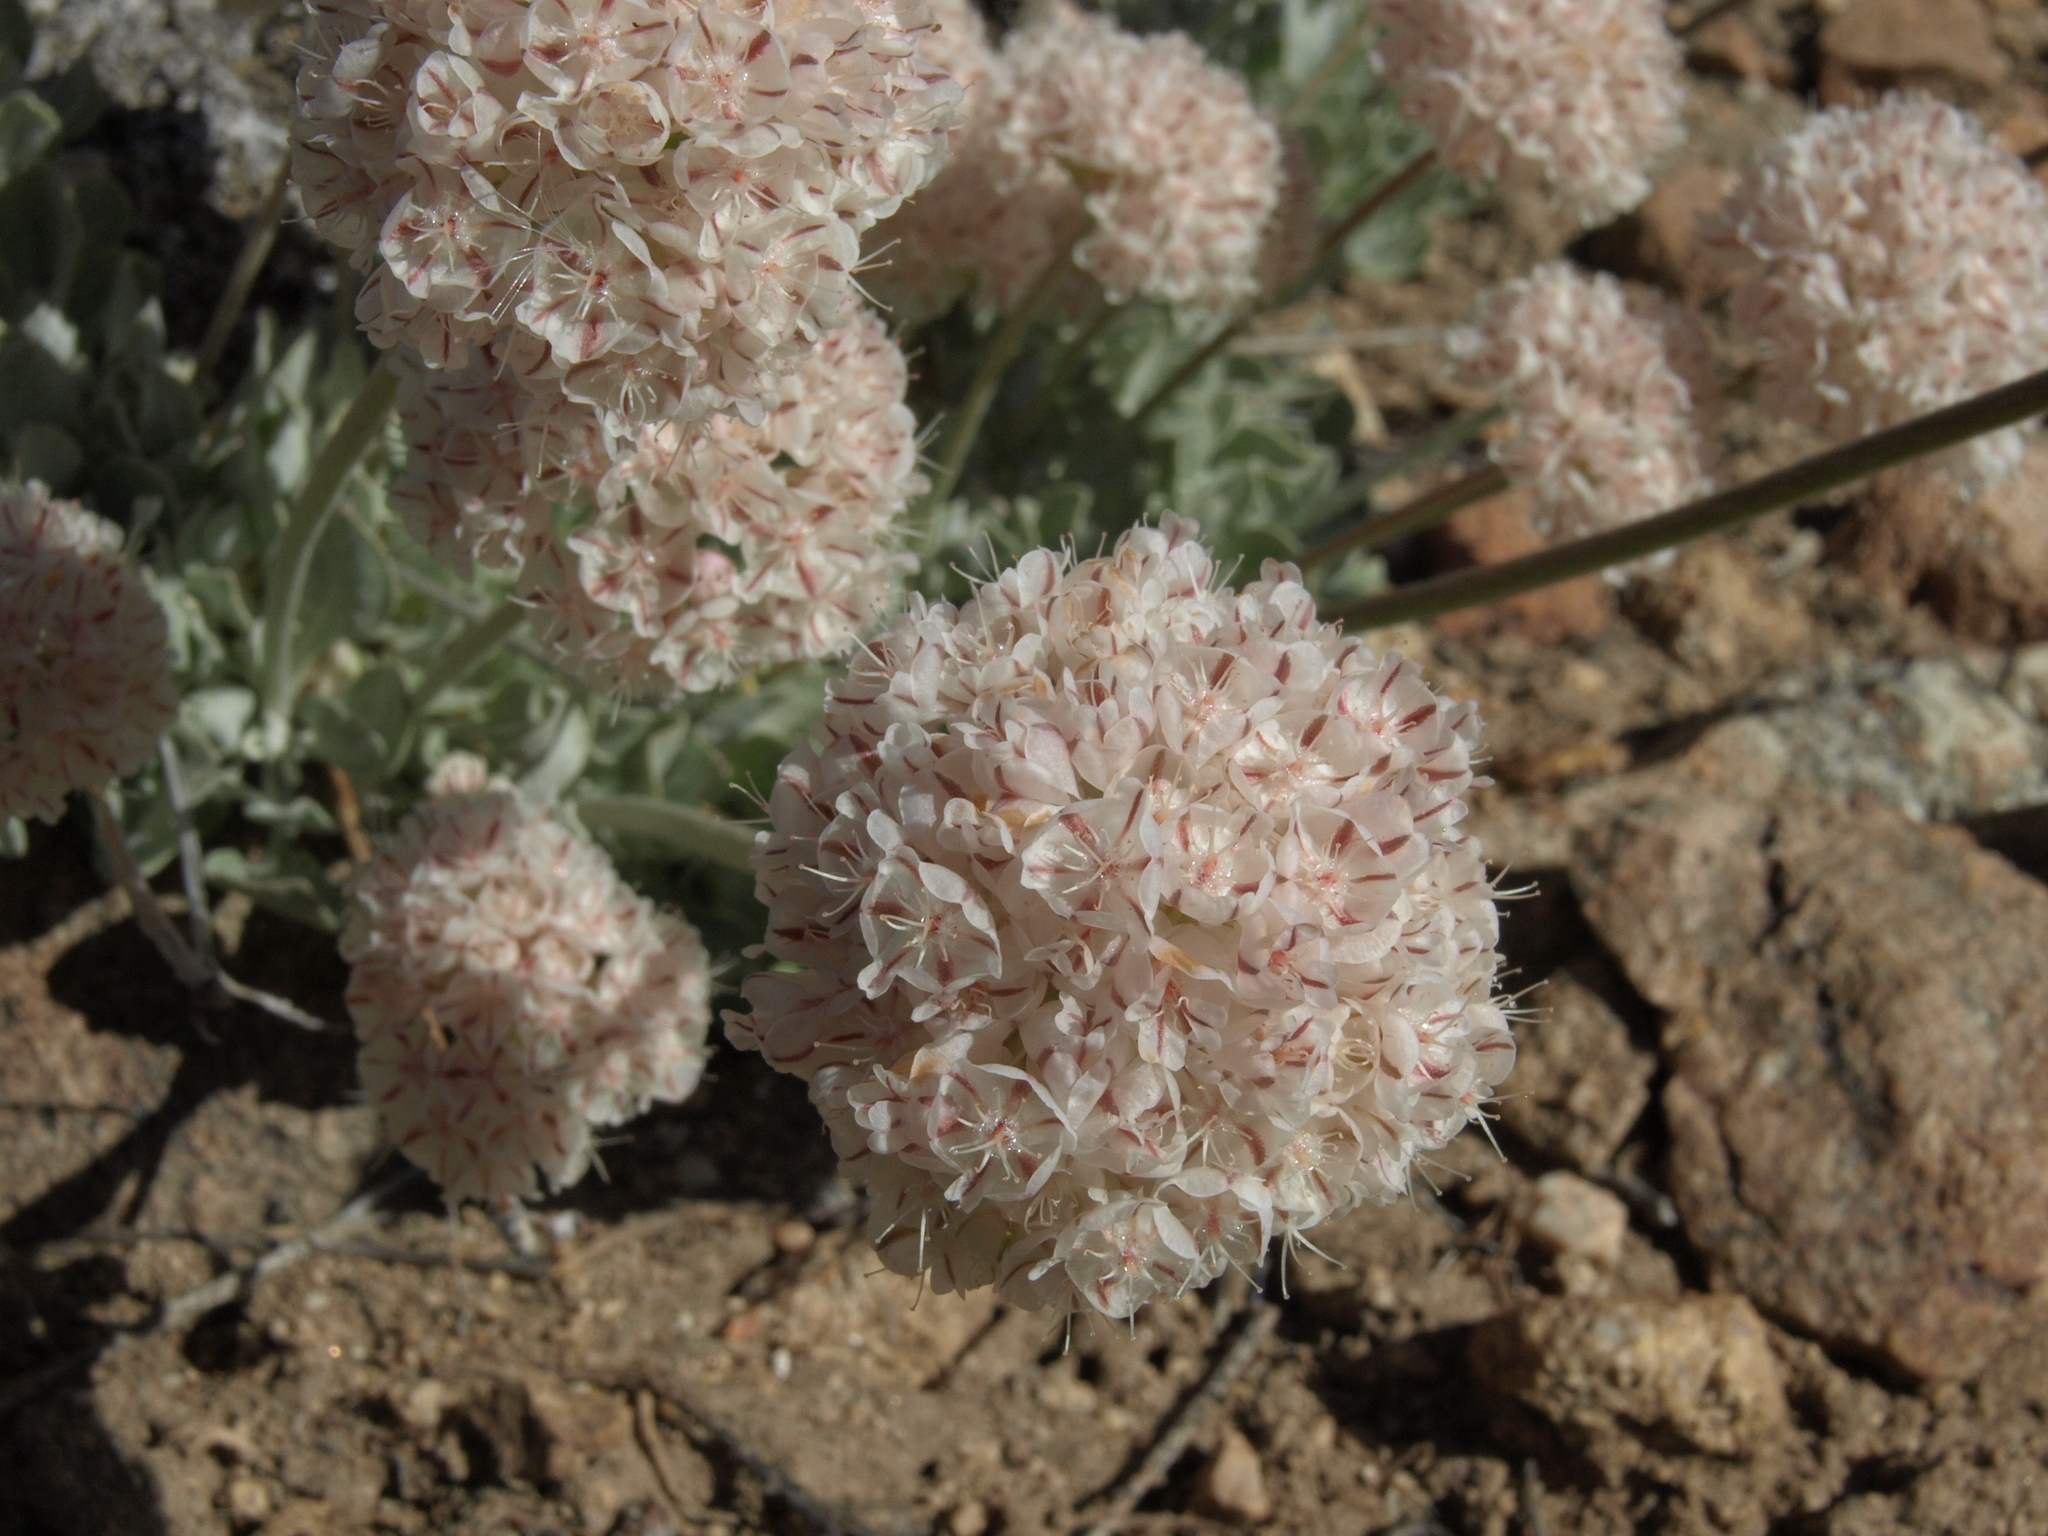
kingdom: Plantae
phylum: Tracheophyta
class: Magnoliopsida
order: Caryophyllales
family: Polygonaceae
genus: Eriogonum
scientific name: Eriogonum ovalifolium
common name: Cushion buckwheat
